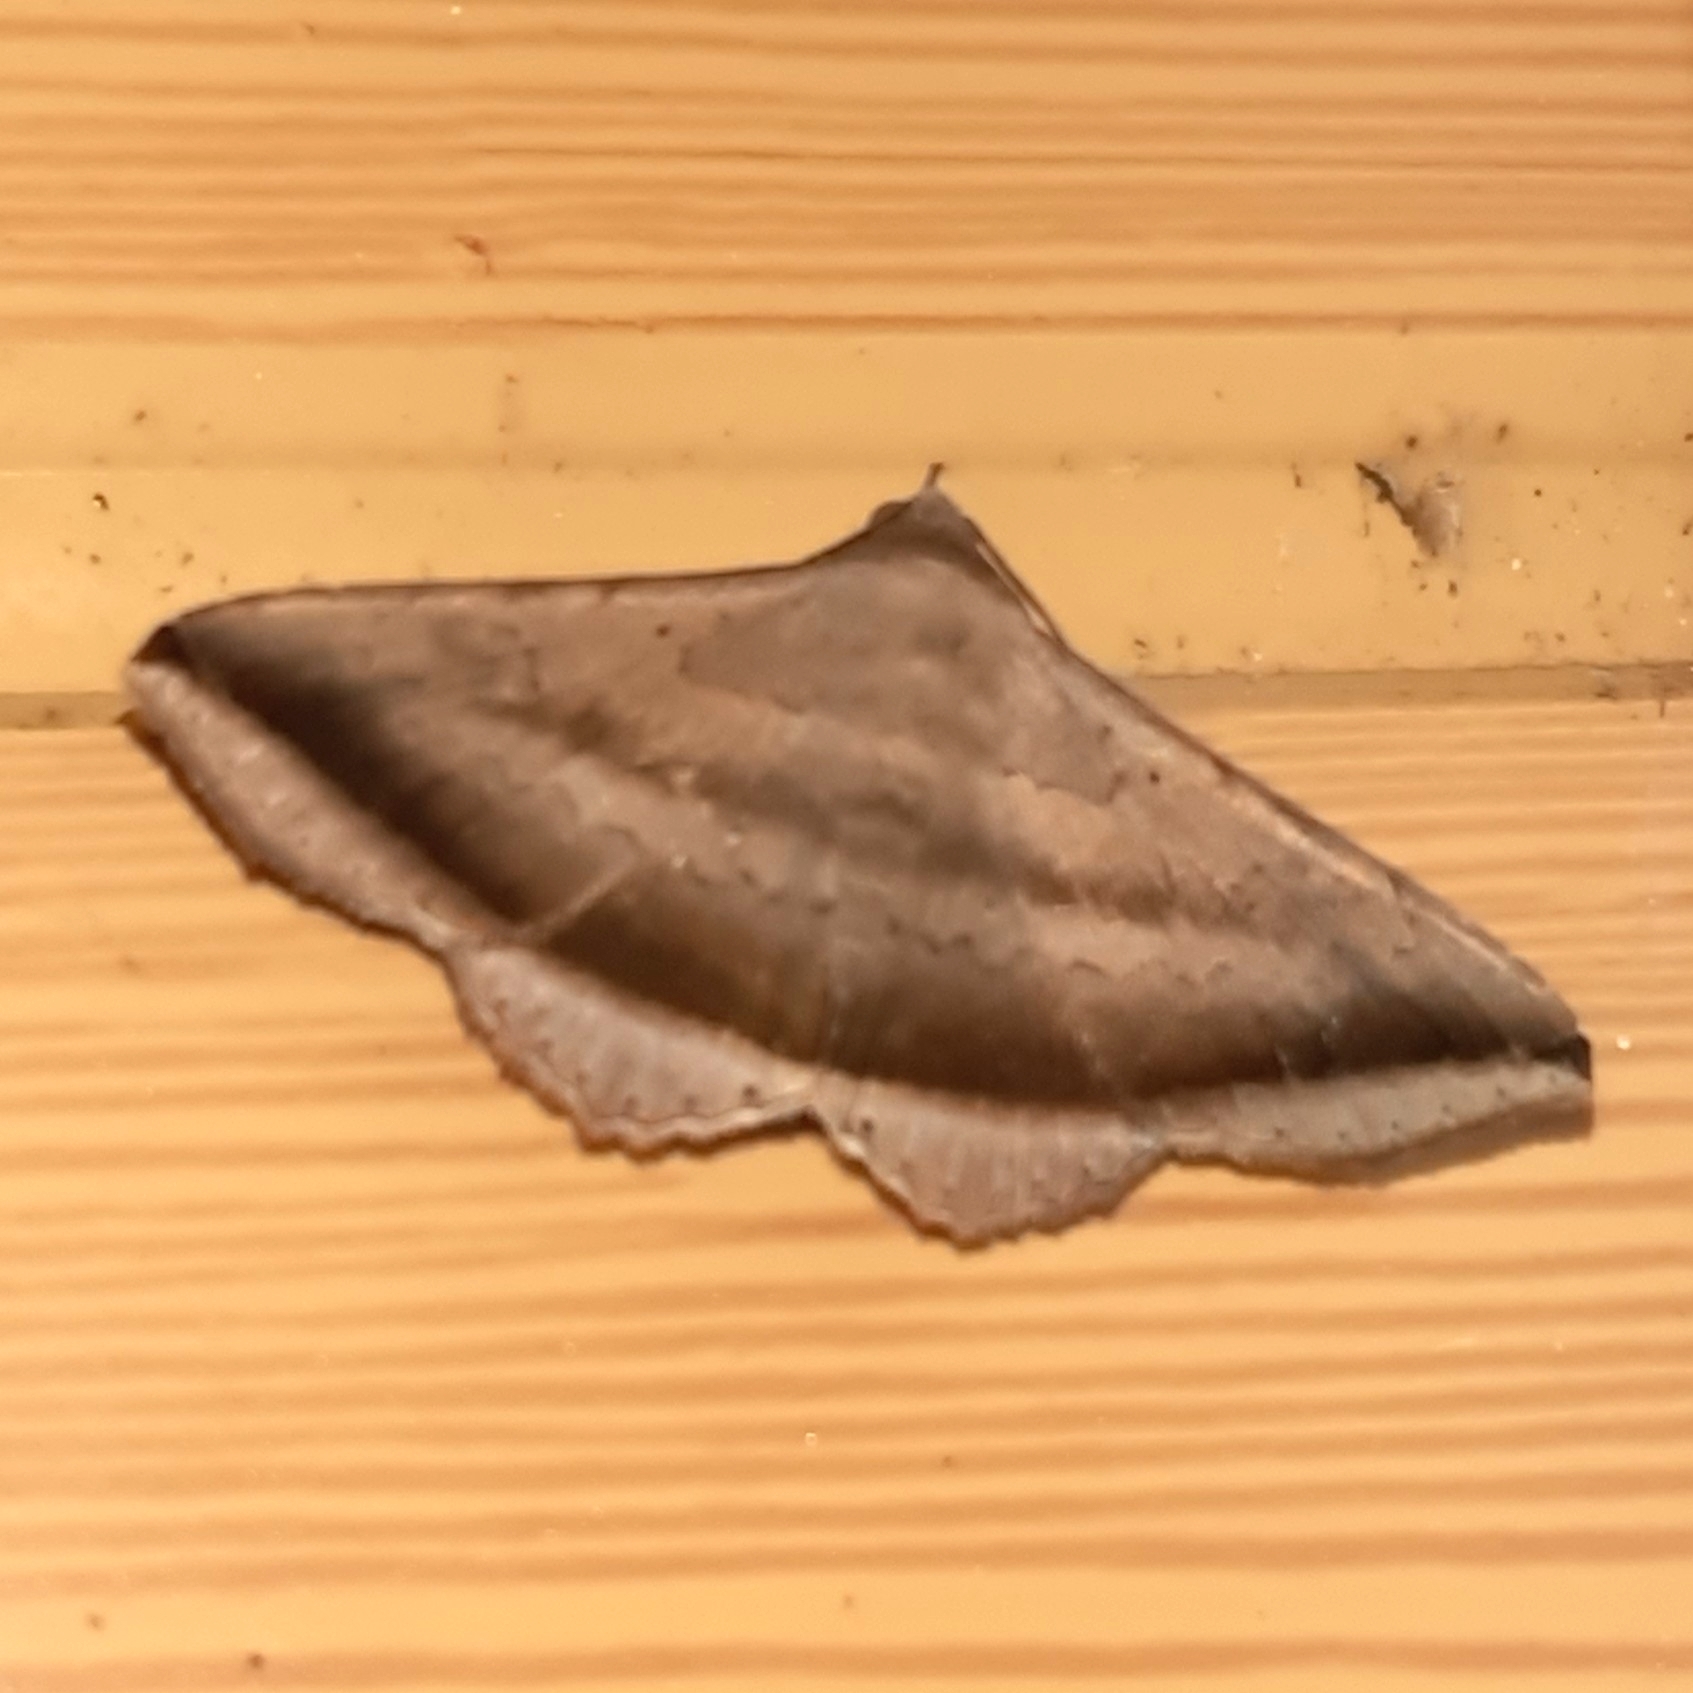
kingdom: Animalia
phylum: Arthropoda
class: Insecta
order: Lepidoptera
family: Erebidae
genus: Lesmone
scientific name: Lesmone formularis
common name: Lesmone moth
